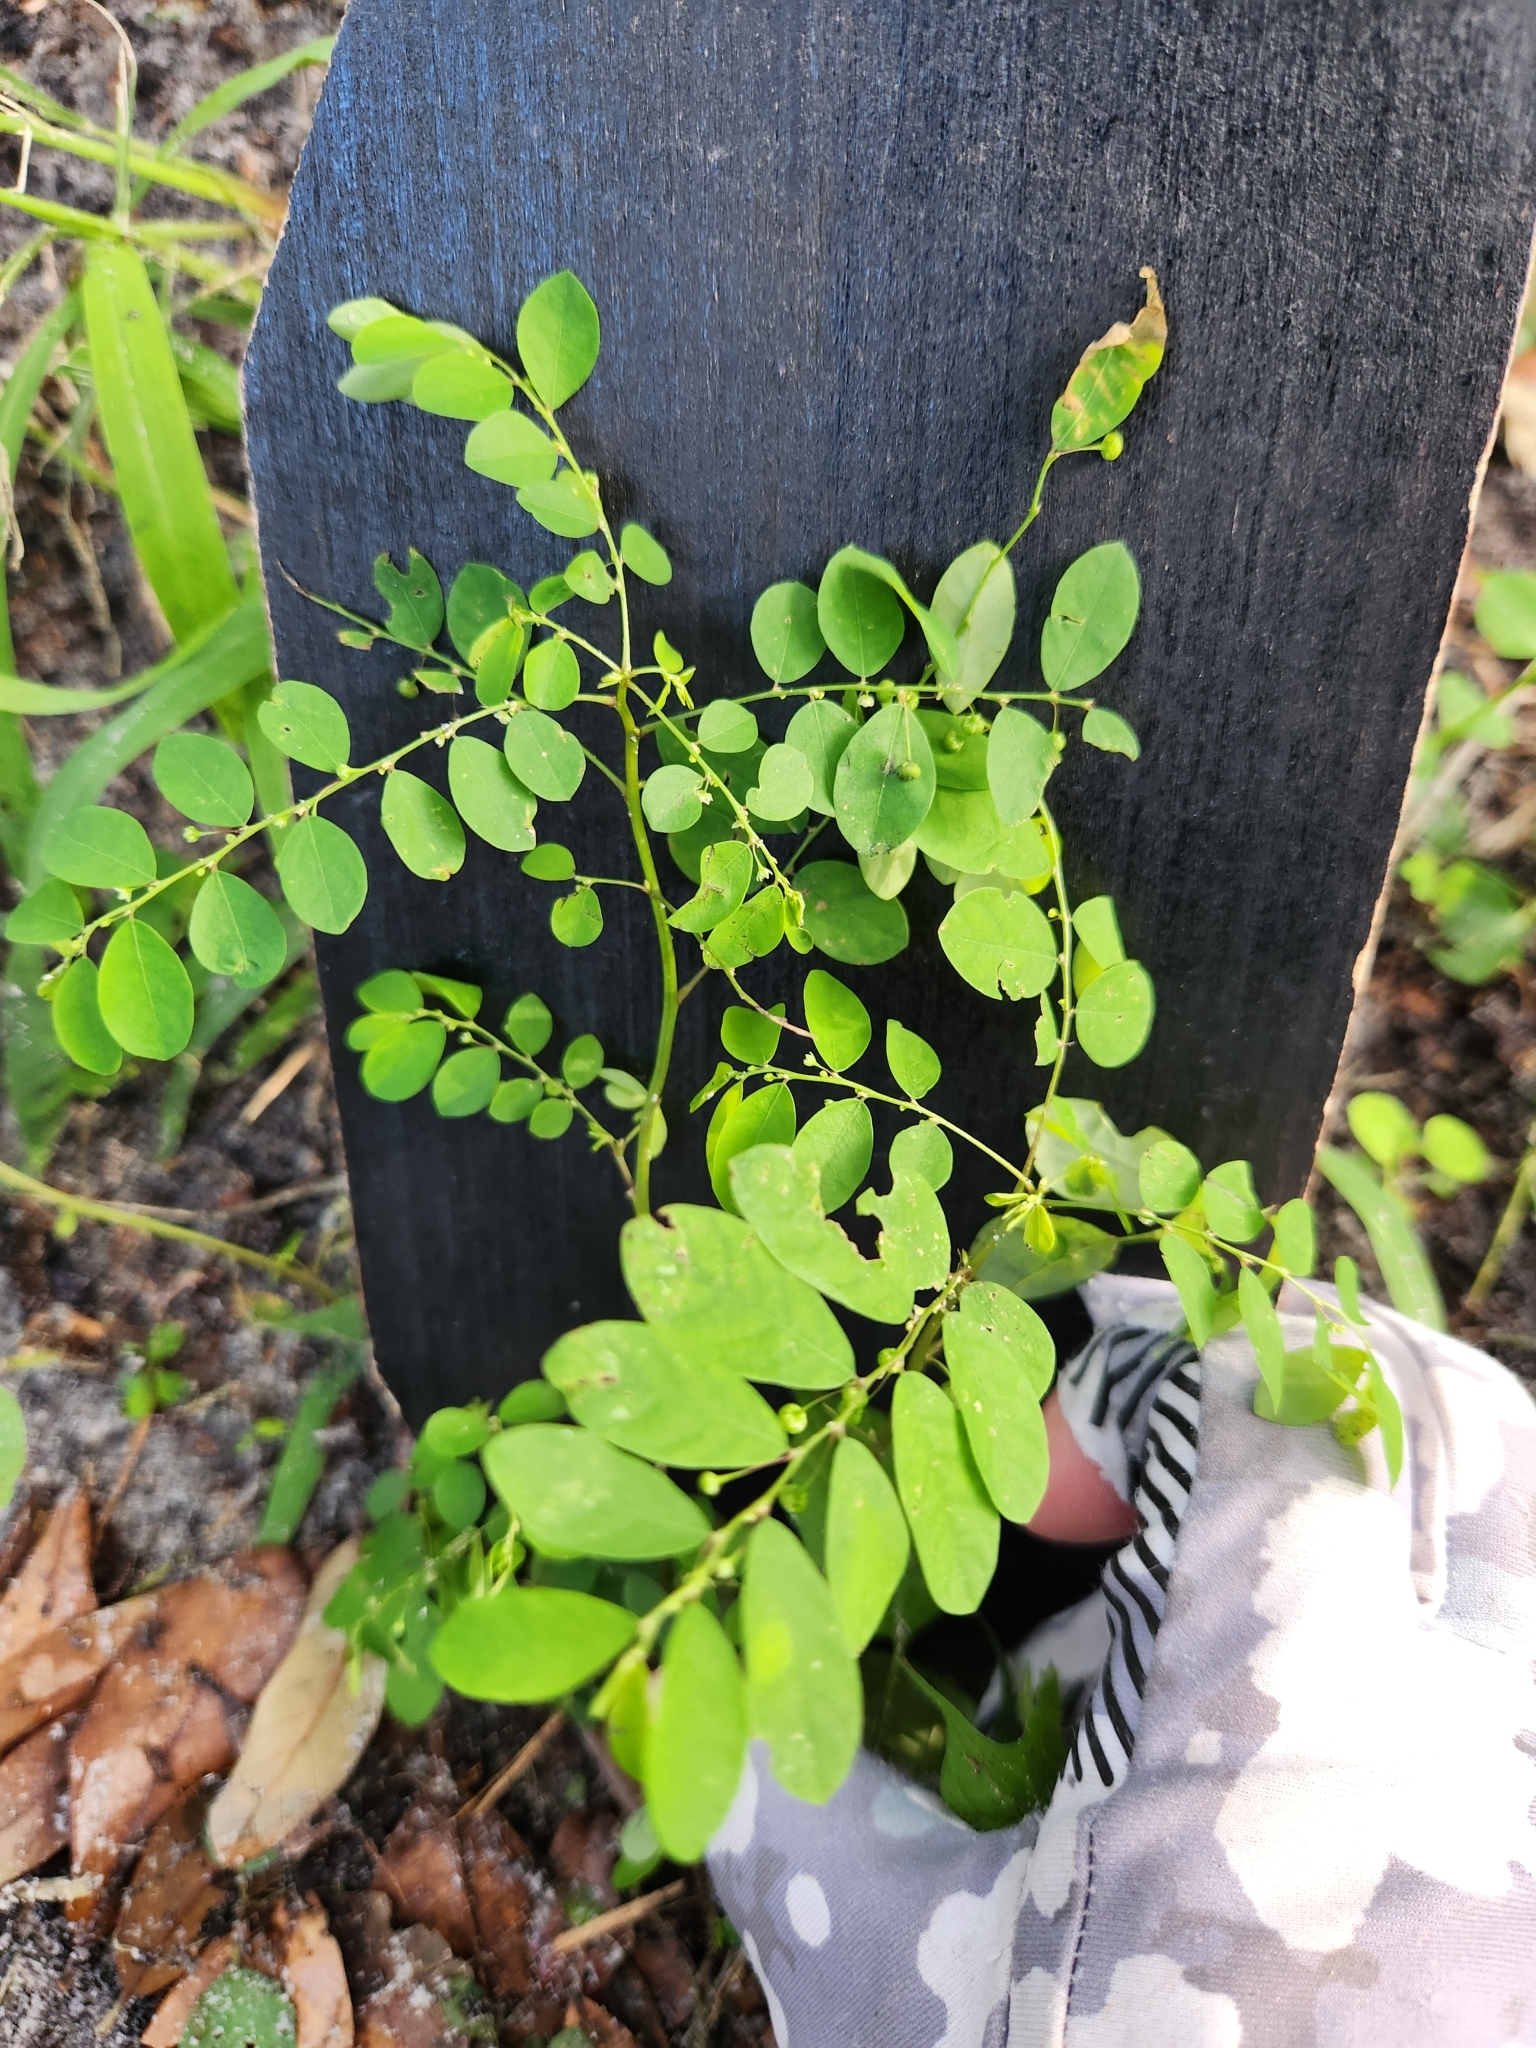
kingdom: Plantae
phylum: Tracheophyta
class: Magnoliopsida
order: Malpighiales
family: Phyllanthaceae
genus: Phyllanthus
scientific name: Phyllanthus tenellus
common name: Mascarene island leaf-flower
